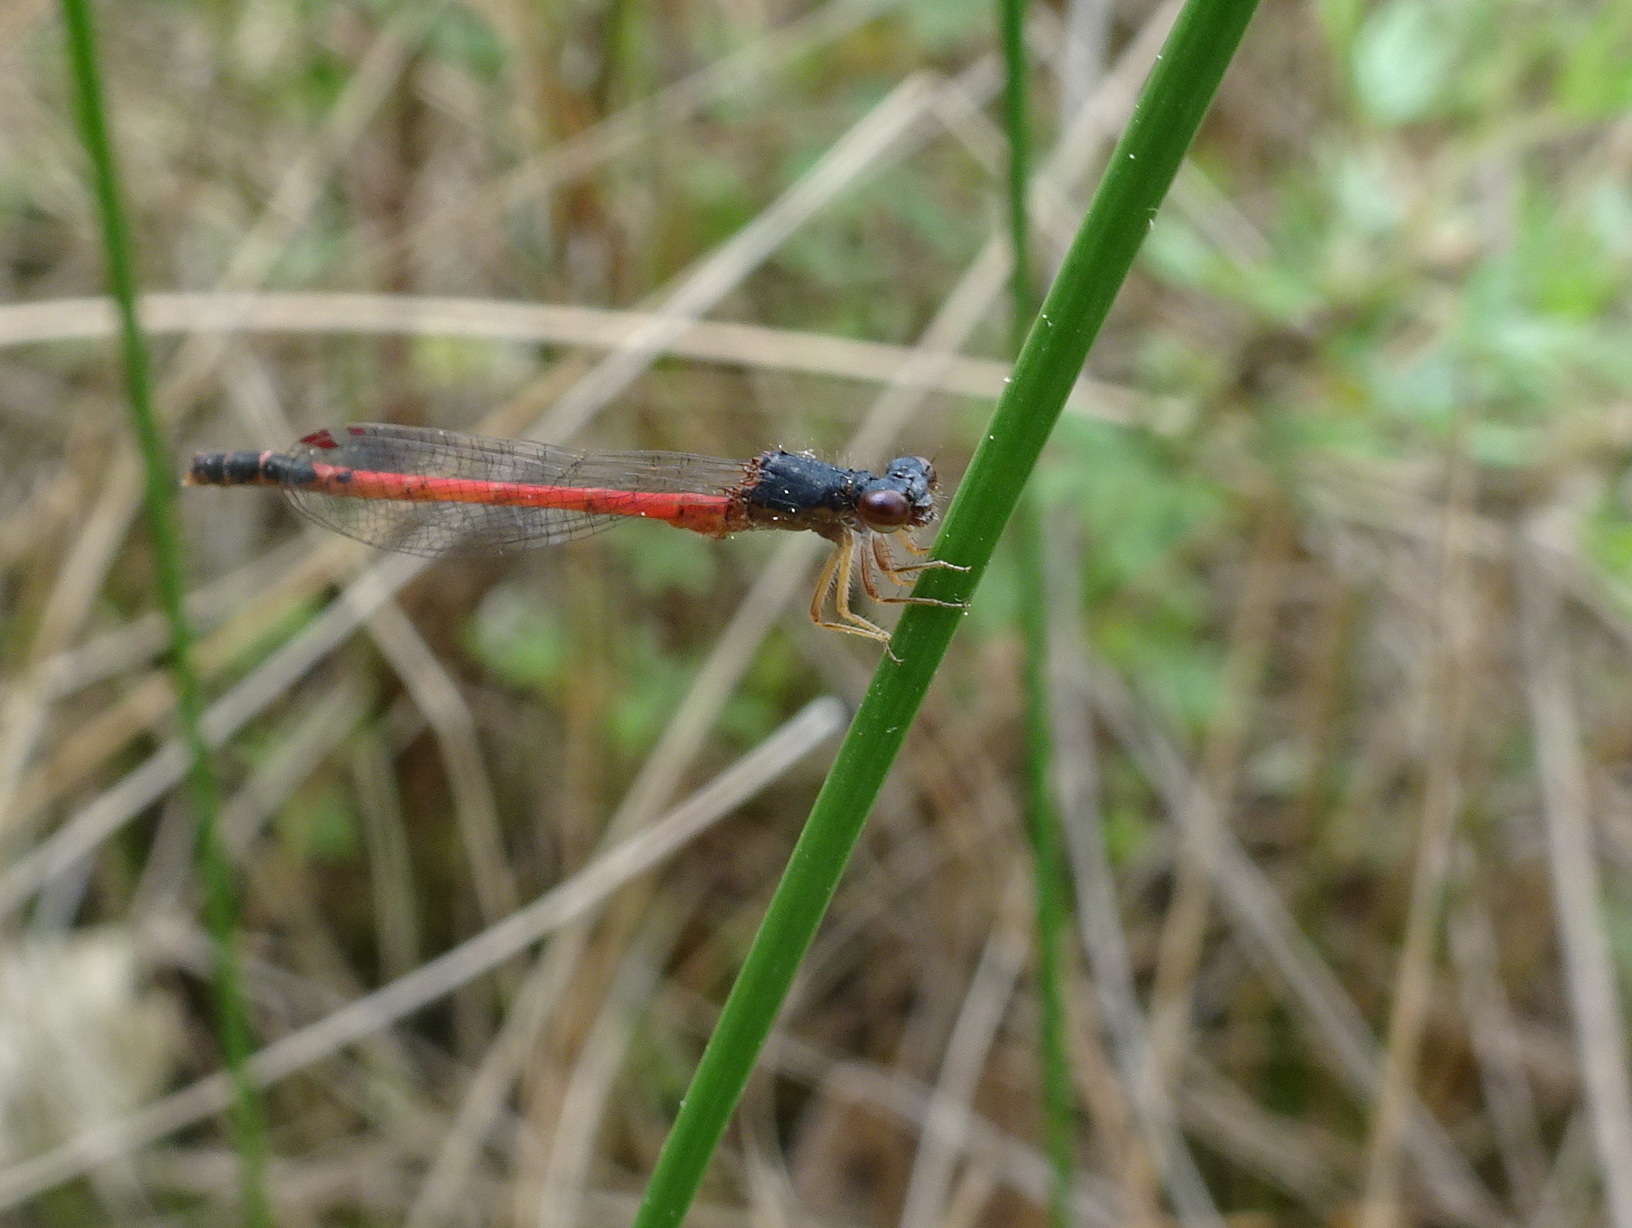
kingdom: Animalia
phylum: Arthropoda
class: Insecta
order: Odonata
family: Coenagrionidae
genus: Amphiagrion
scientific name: Amphiagrion saucium
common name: Eastern red damsel
